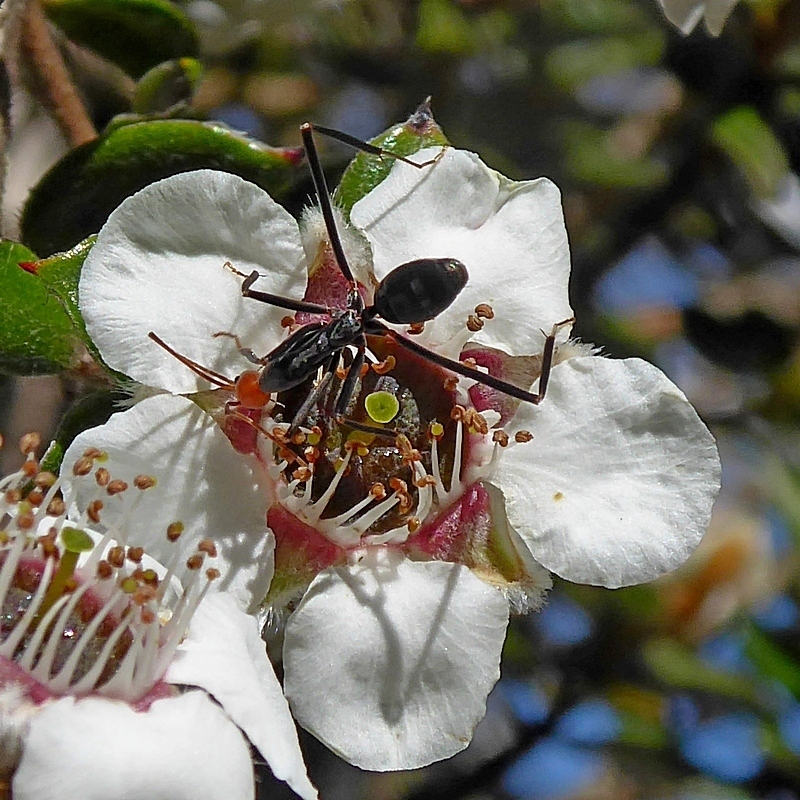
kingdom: Animalia
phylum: Arthropoda
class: Insecta
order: Hymenoptera
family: Formicidae
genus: Leptomyrmex
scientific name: Leptomyrmex erythrocephalus
